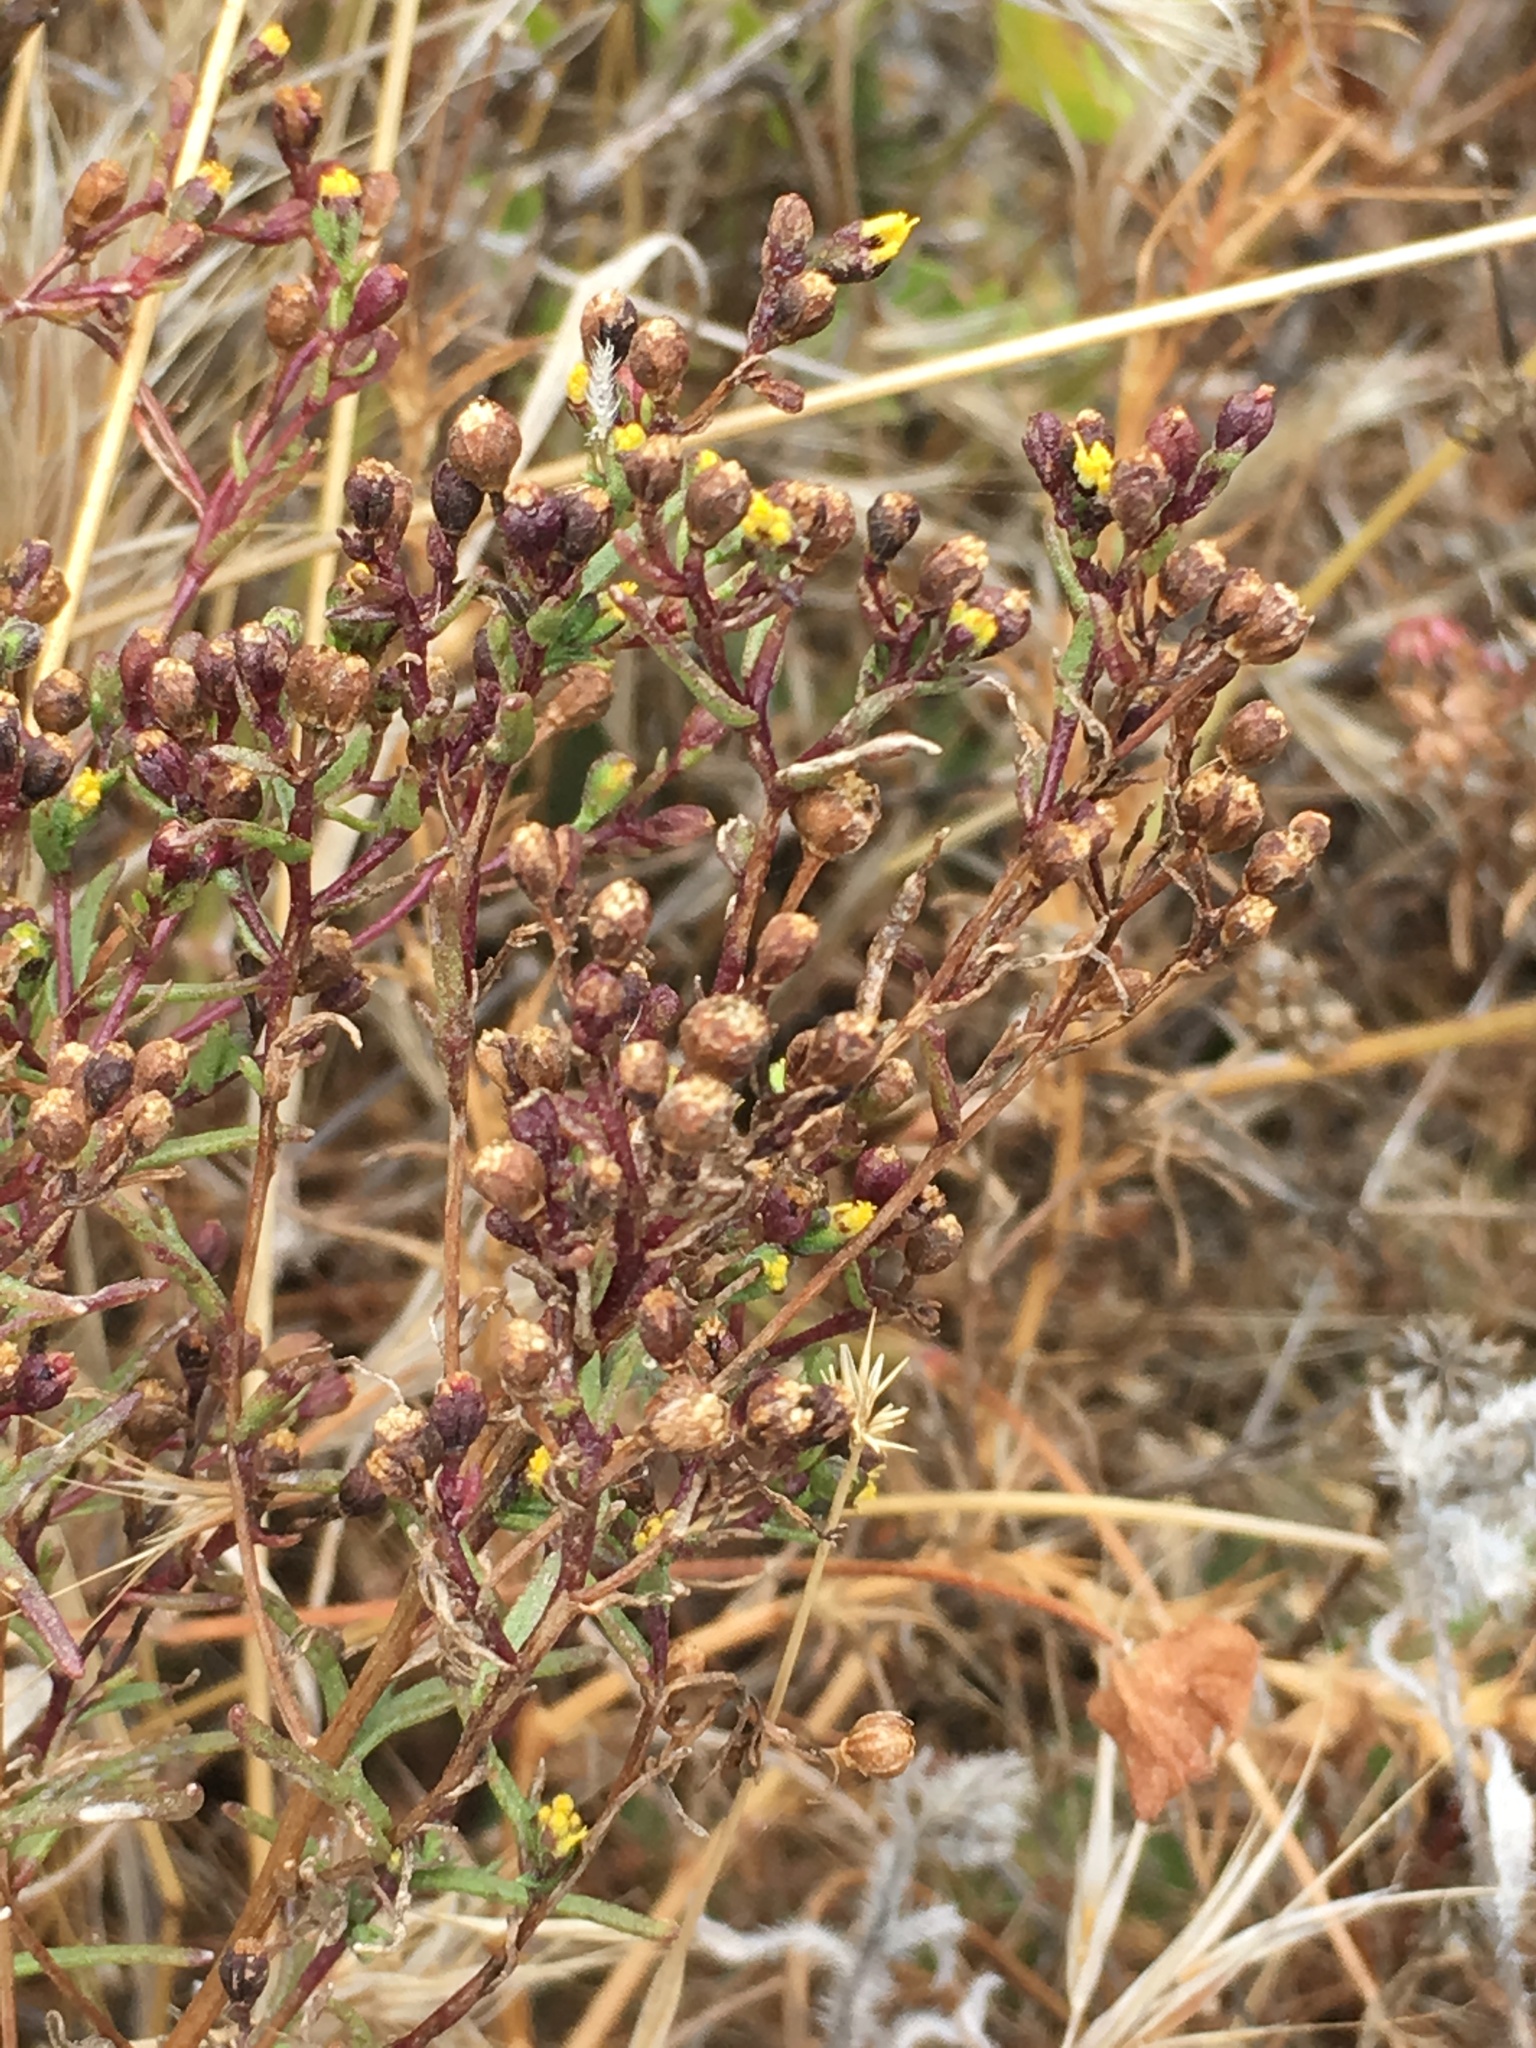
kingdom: Plantae
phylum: Tracheophyta
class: Magnoliopsida
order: Asterales
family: Asteraceae
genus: Amblyopappus
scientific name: Amblyopappus pusillus
